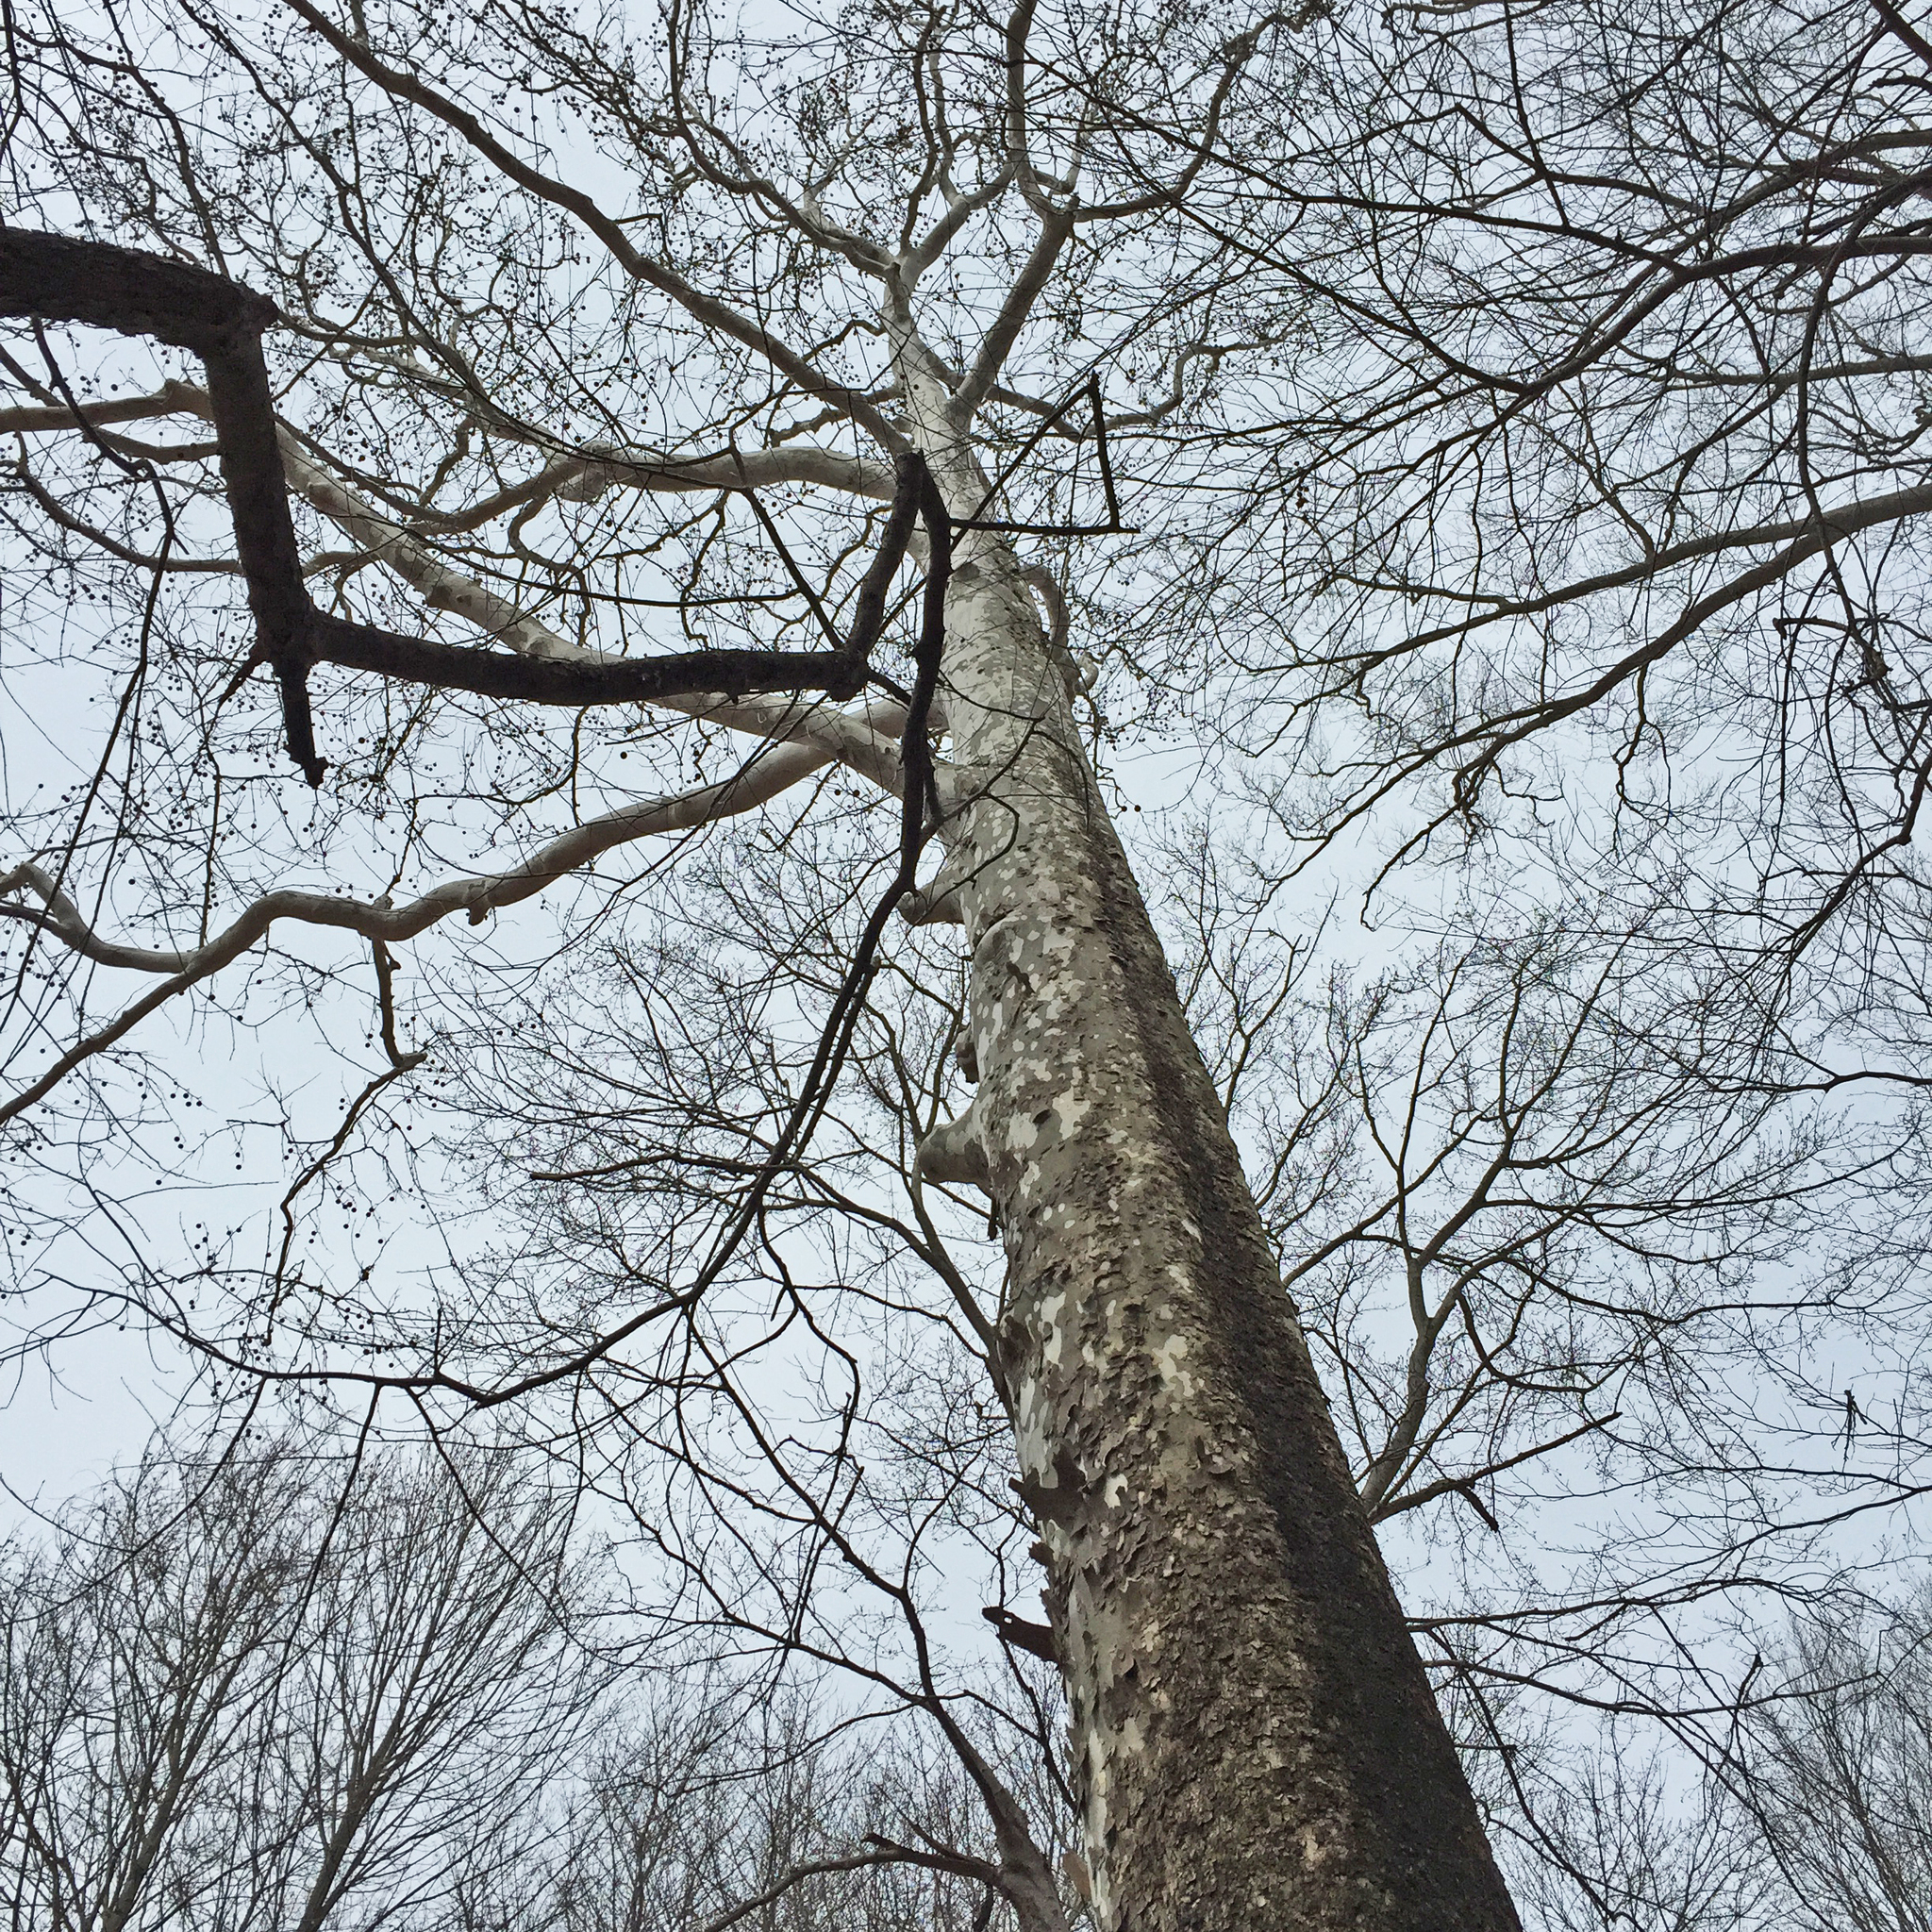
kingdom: Plantae
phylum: Tracheophyta
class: Magnoliopsida
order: Proteales
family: Platanaceae
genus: Platanus
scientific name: Platanus occidentalis
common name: American sycamore
